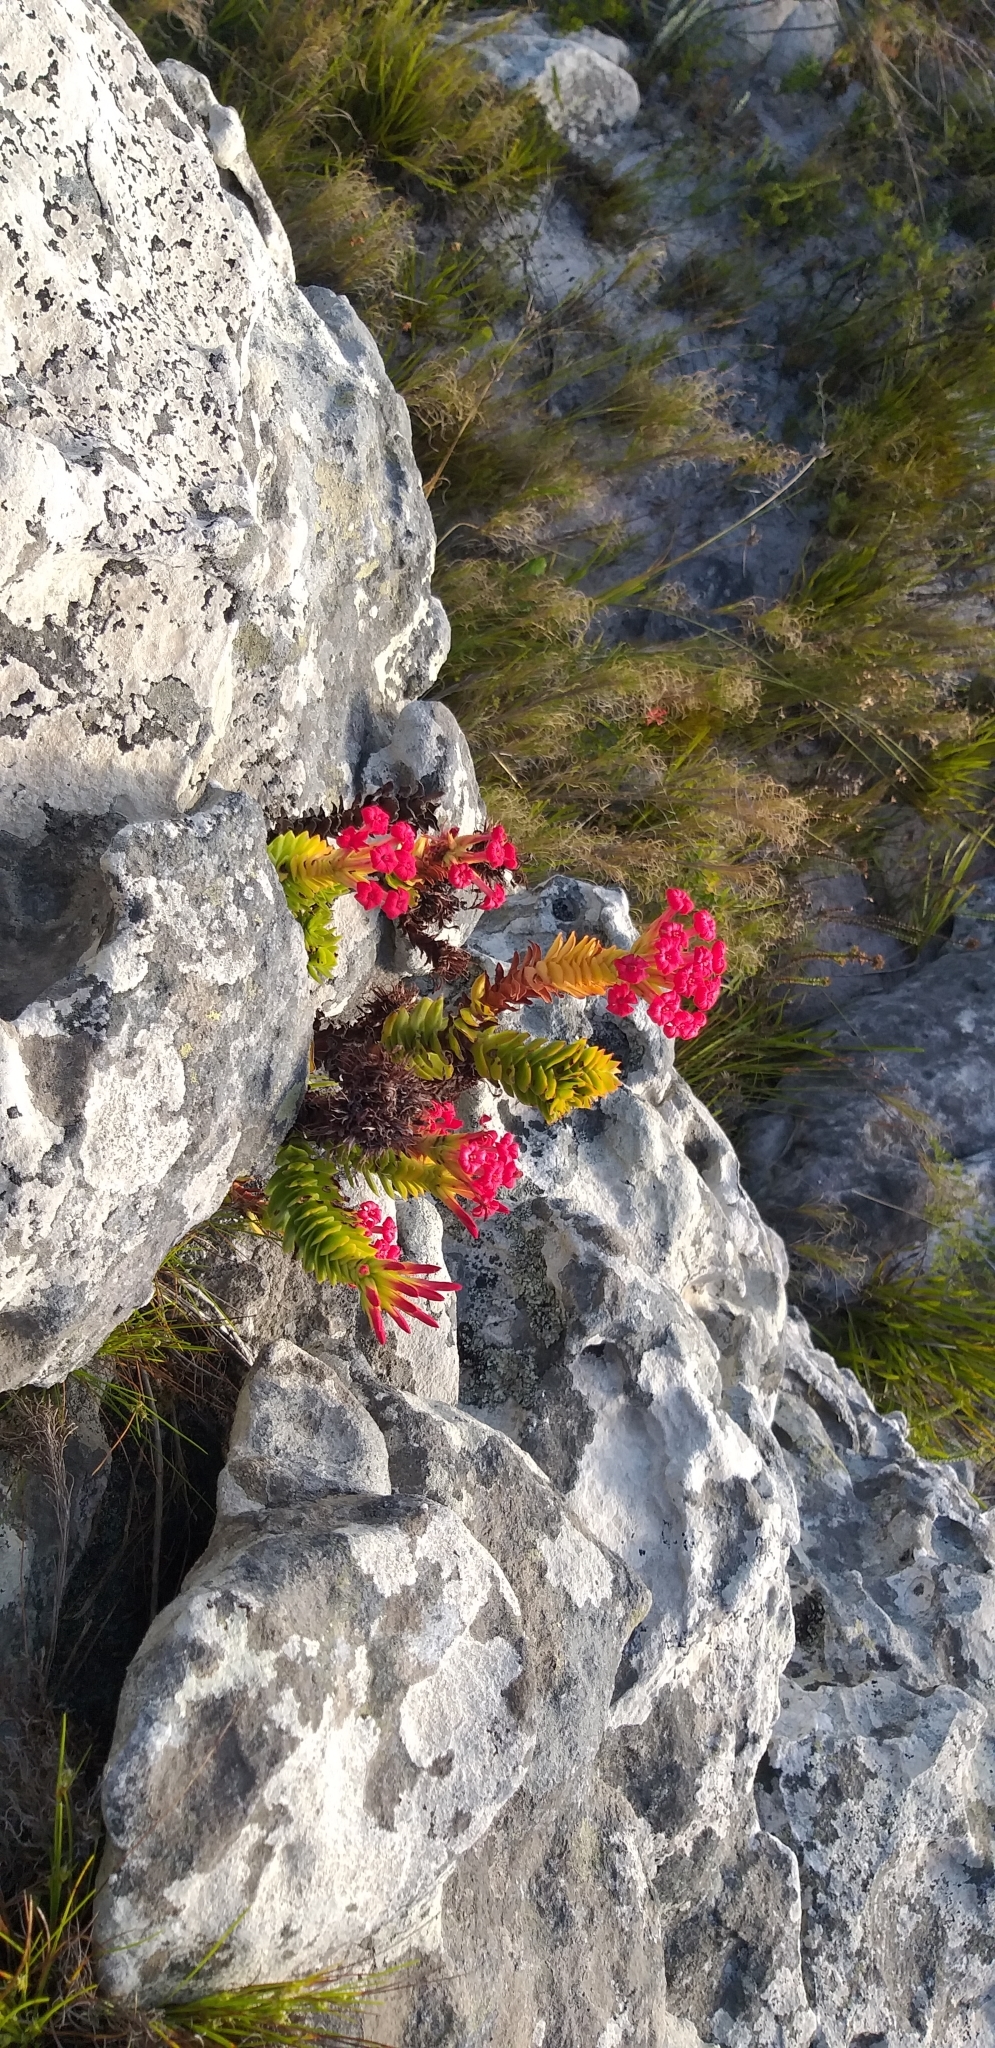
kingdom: Plantae
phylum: Tracheophyta
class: Magnoliopsida
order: Saxifragales
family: Crassulaceae
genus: Crassula
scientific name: Crassula coccinea
